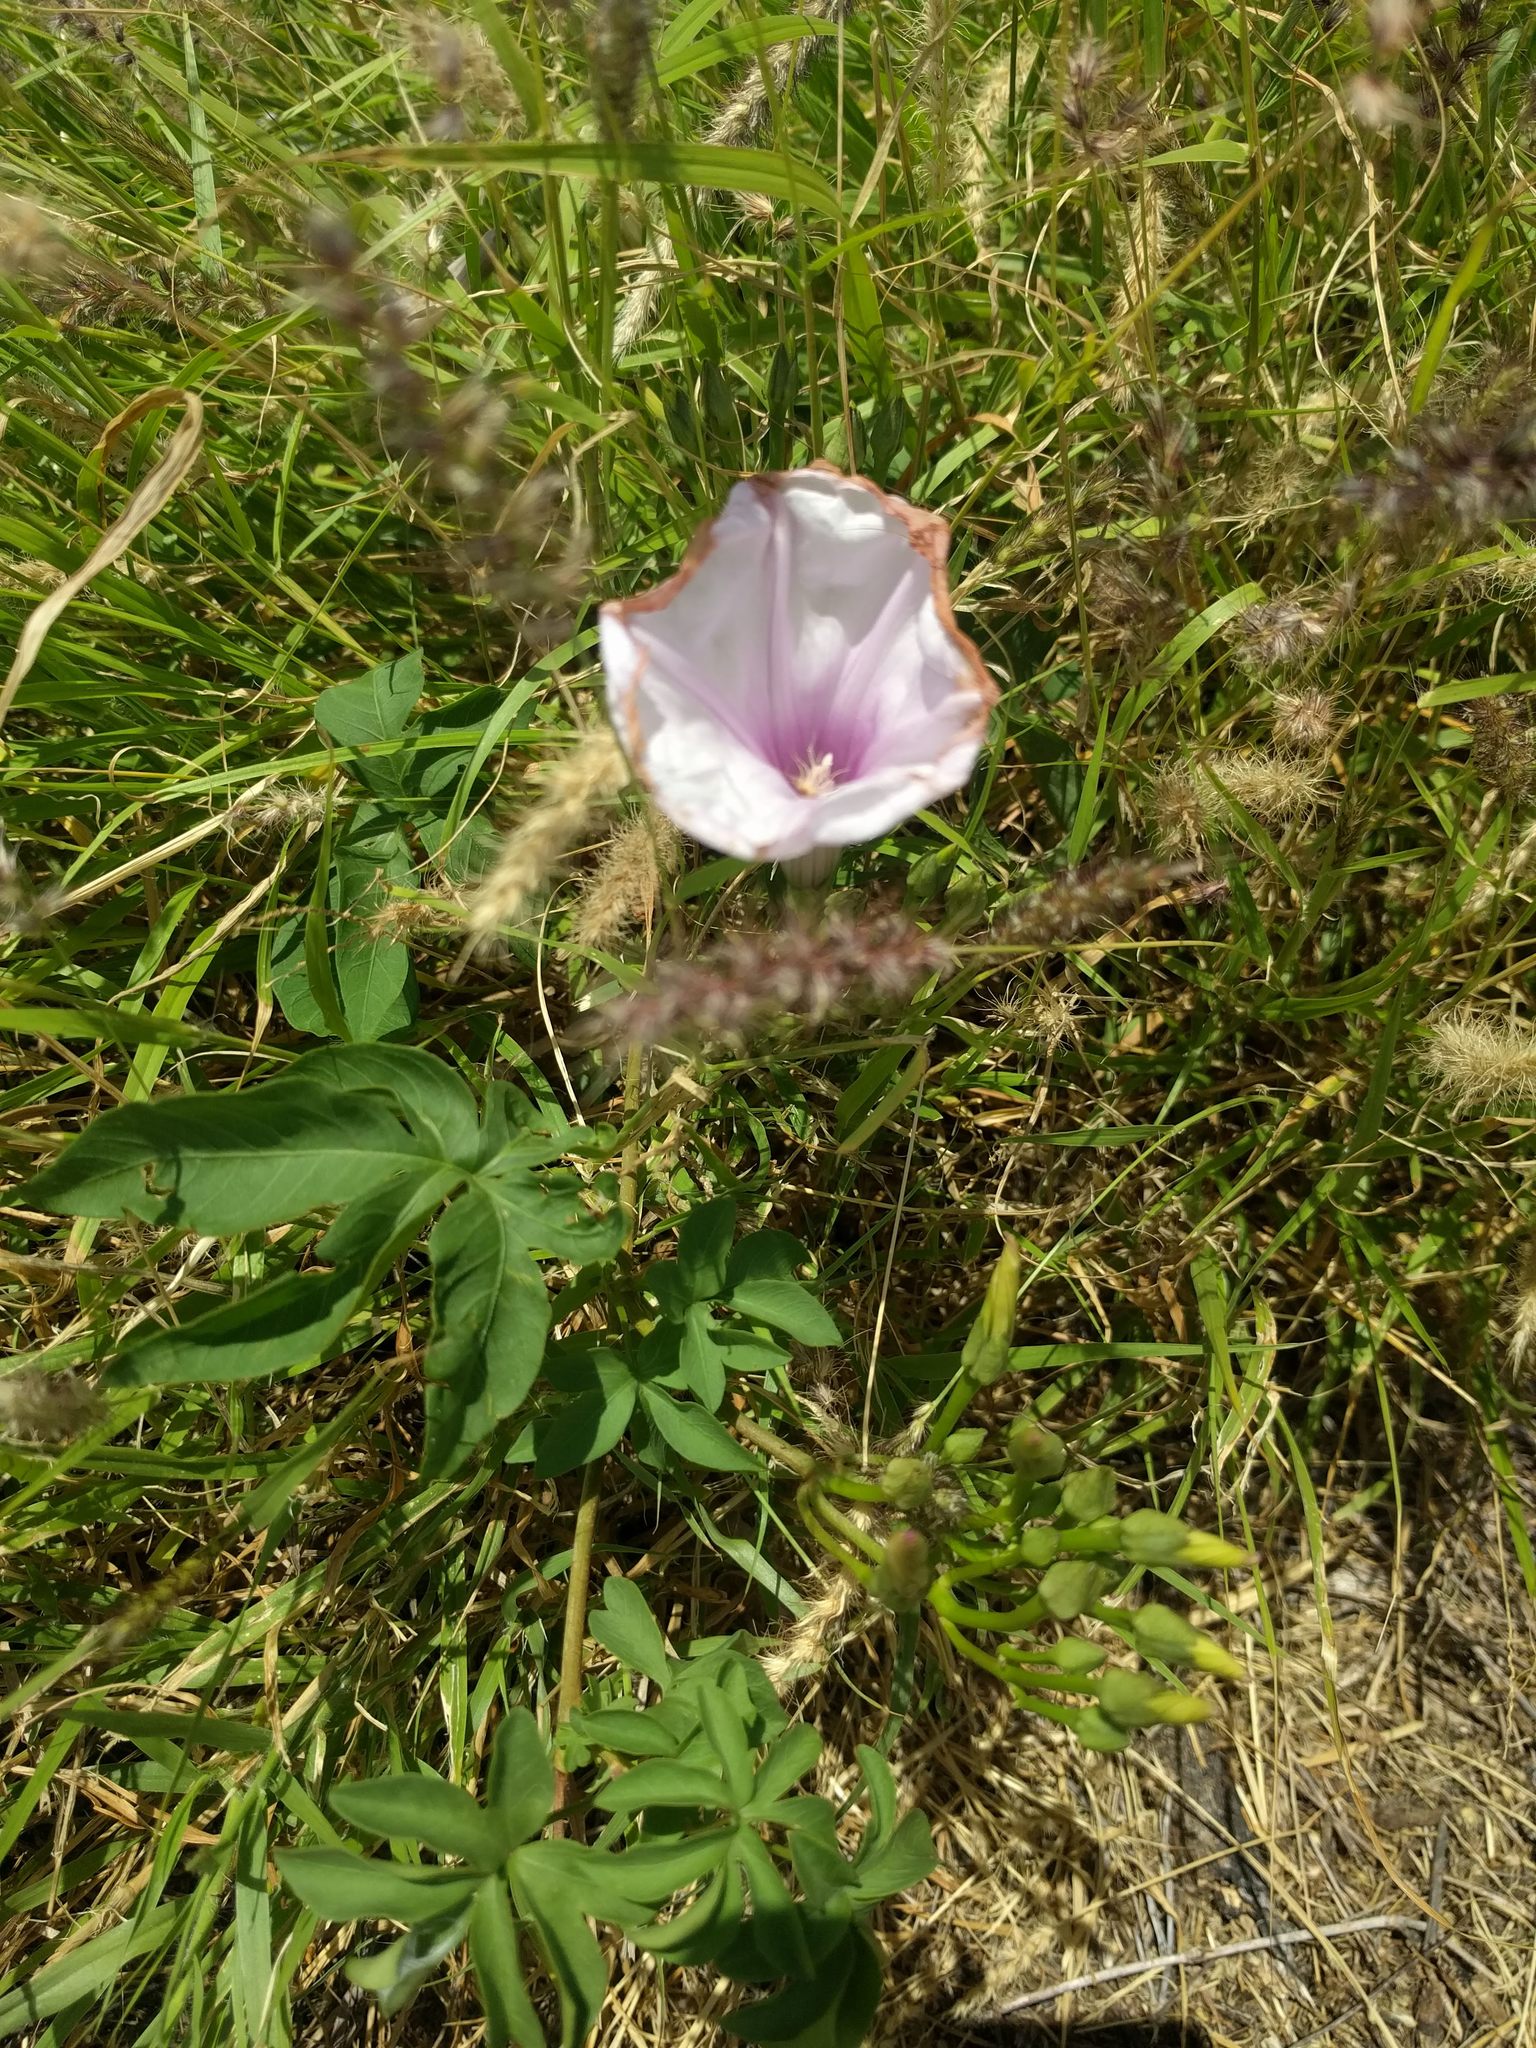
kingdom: Plantae
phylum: Tracheophyta
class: Magnoliopsida
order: Solanales
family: Convolvulaceae
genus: Ipomoea
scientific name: Ipomoea cairica
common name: Mile a minute vine
